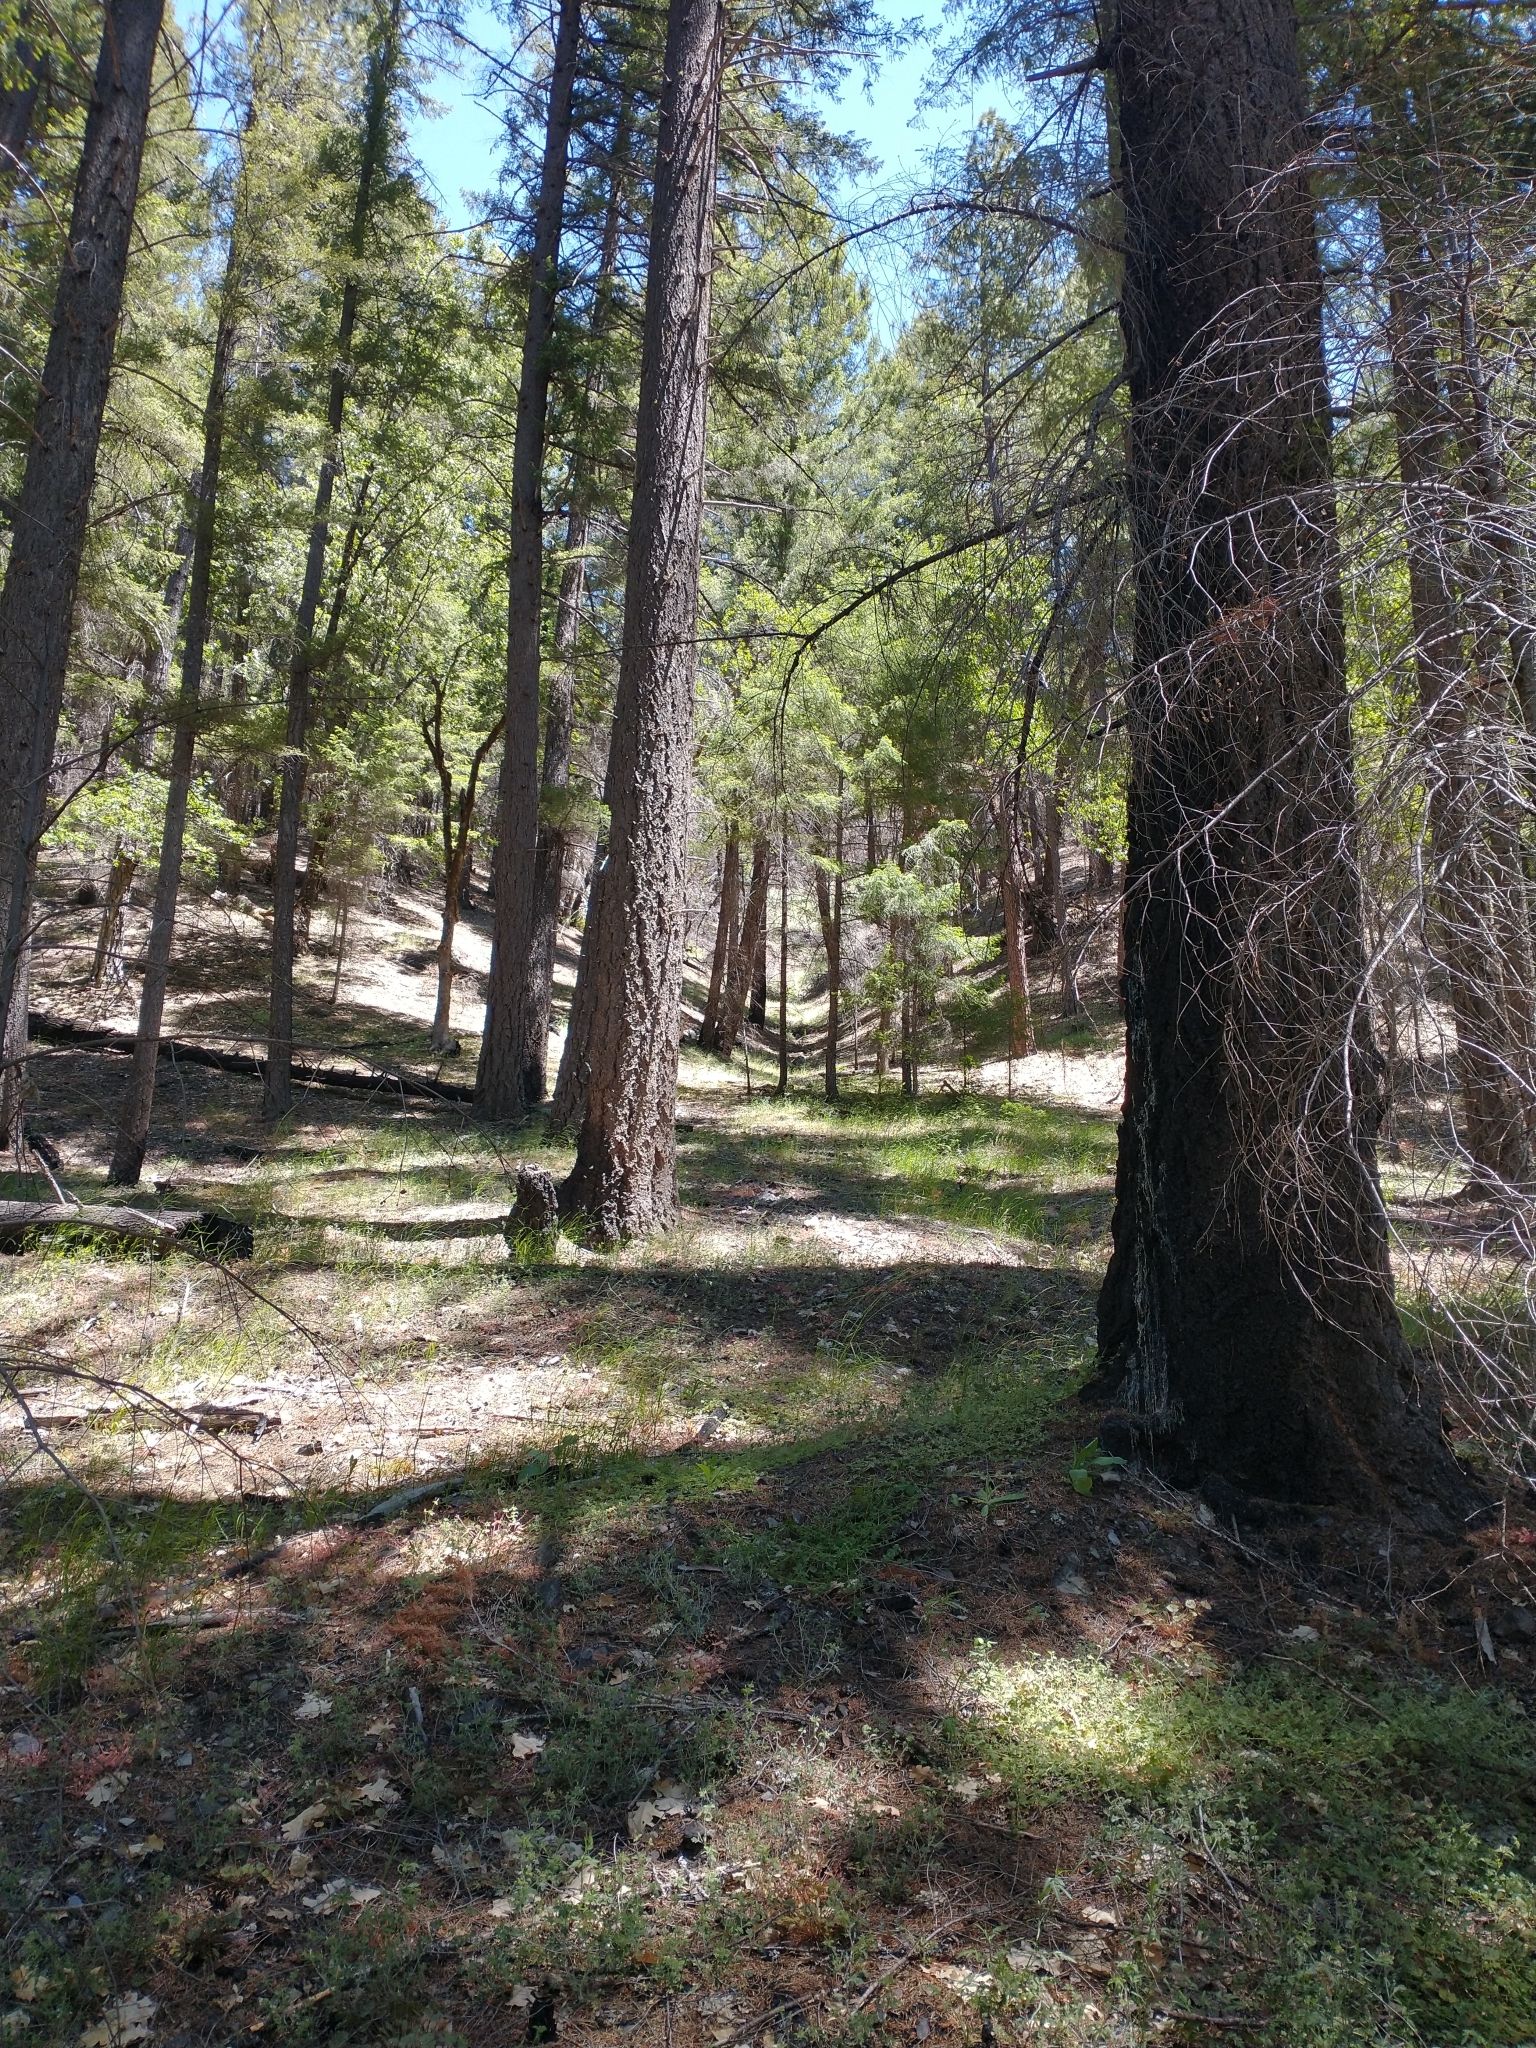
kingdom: Plantae
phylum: Tracheophyta
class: Pinopsida
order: Pinales
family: Pinaceae
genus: Pseudotsuga
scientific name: Pseudotsuga menziesii
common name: Douglas fir
